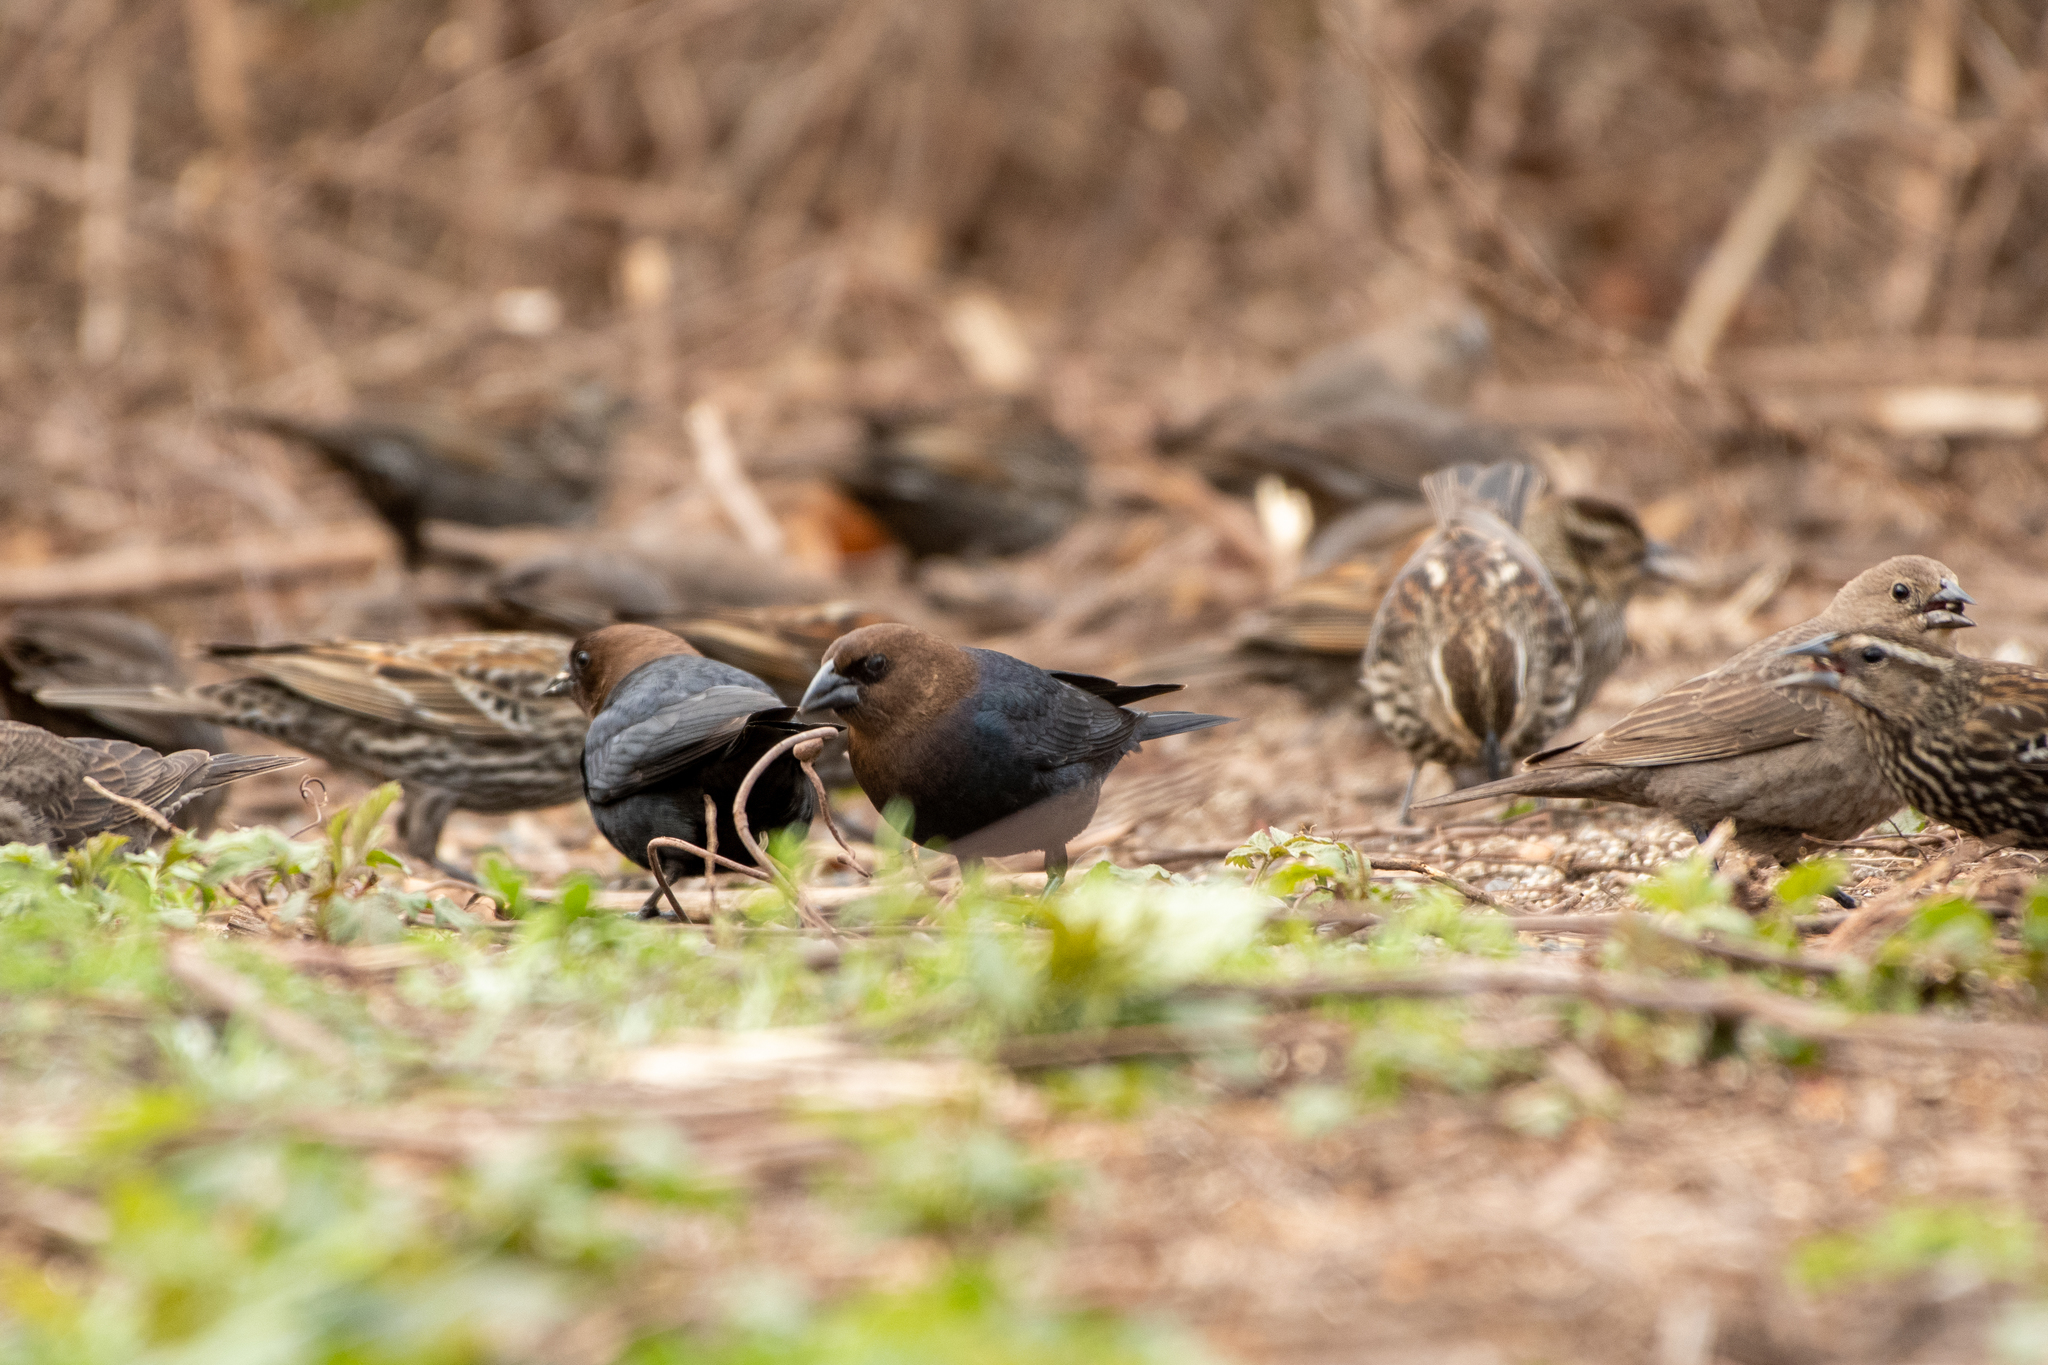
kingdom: Animalia
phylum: Chordata
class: Aves
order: Passeriformes
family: Icteridae
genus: Molothrus
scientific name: Molothrus ater
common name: Brown-headed cowbird
